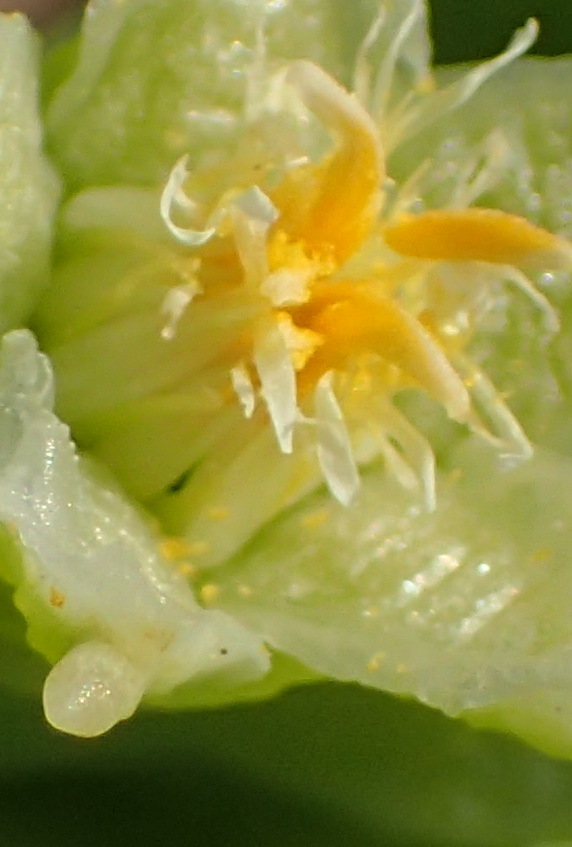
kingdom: Plantae
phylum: Tracheophyta
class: Magnoliopsida
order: Zygophyllales
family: Zygophyllaceae
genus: Augea
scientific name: Augea capensis
